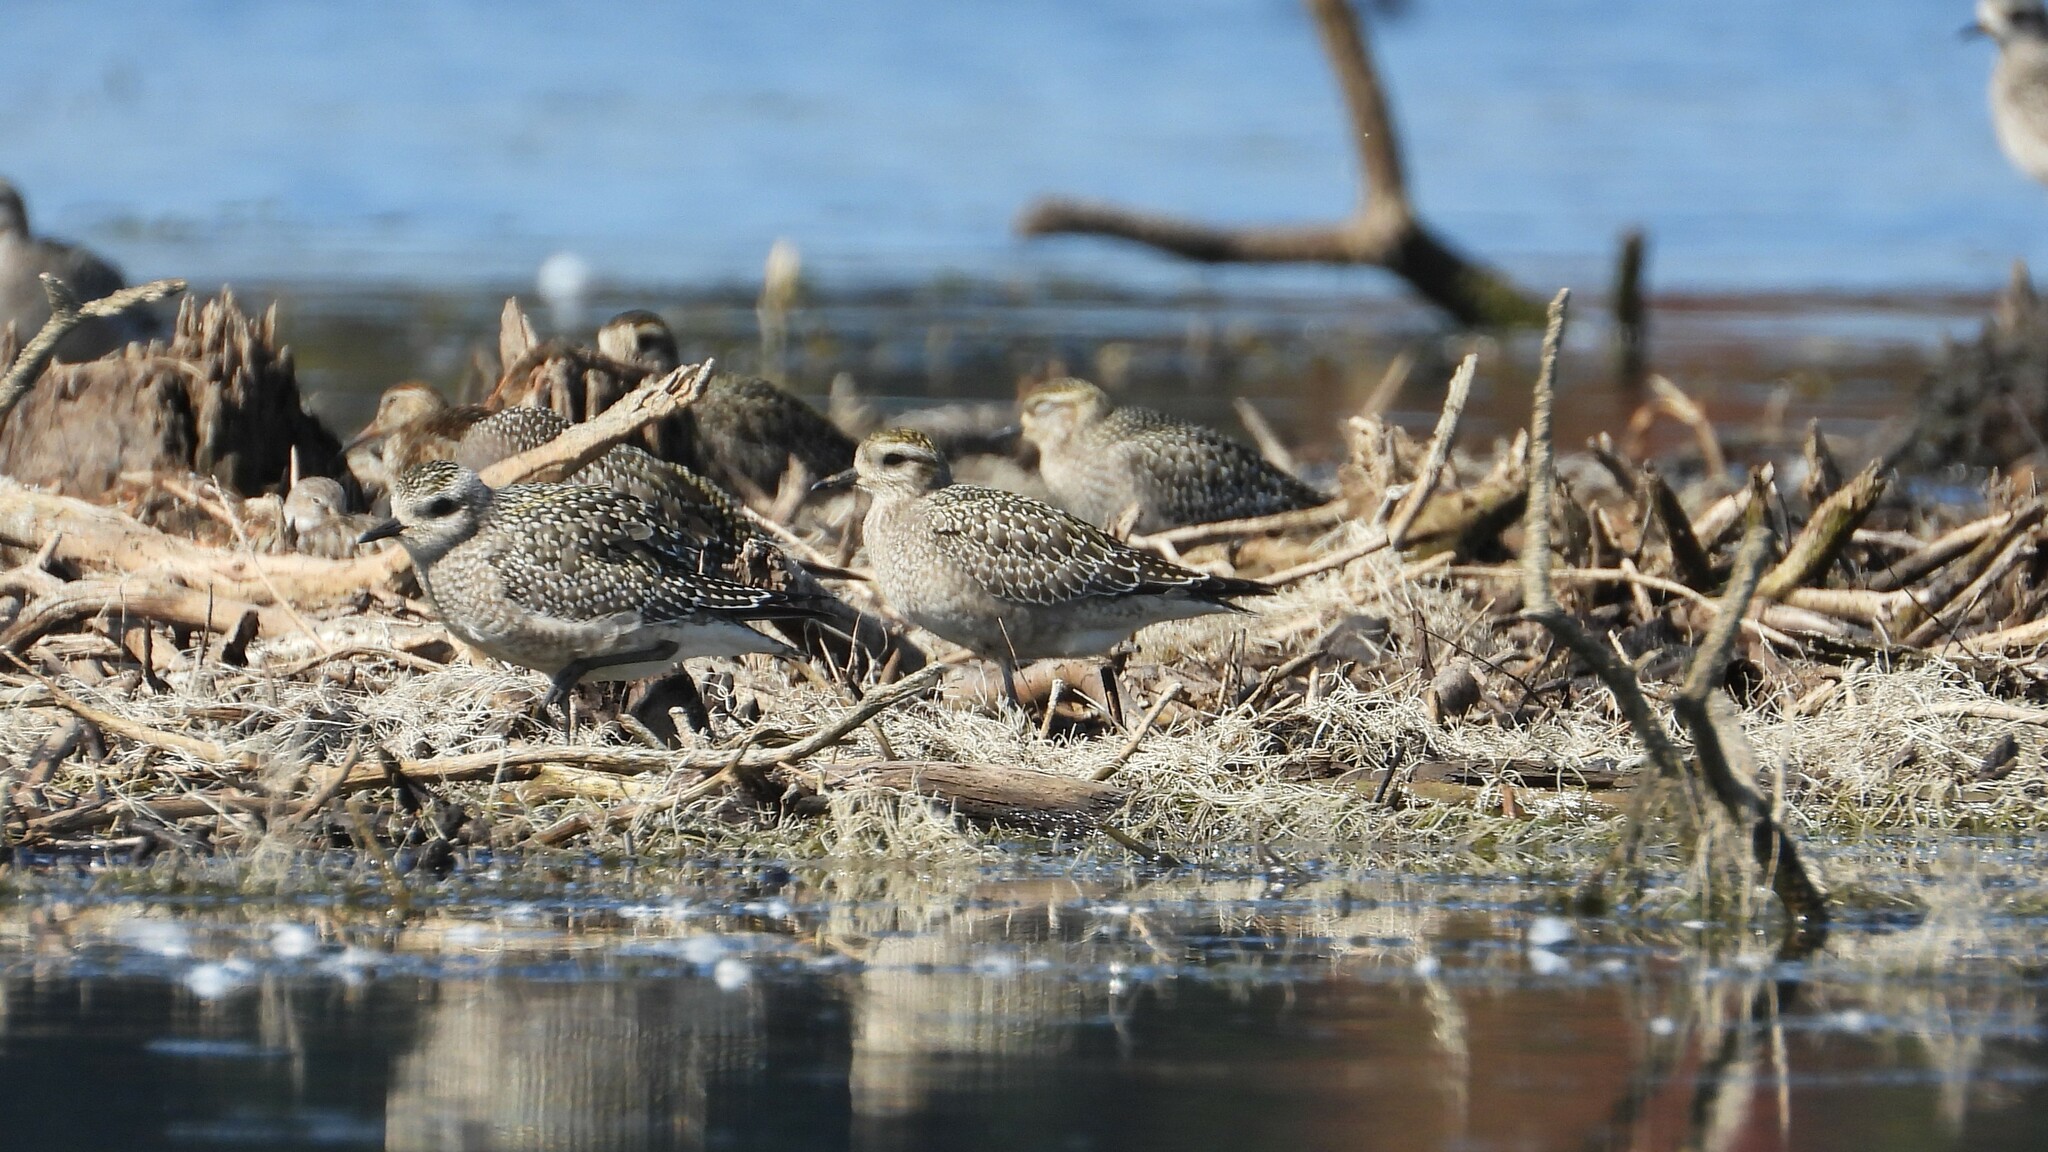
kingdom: Animalia
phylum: Chordata
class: Aves
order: Charadriiformes
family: Charadriidae
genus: Pluvialis
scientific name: Pluvialis dominica
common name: American golden plover
